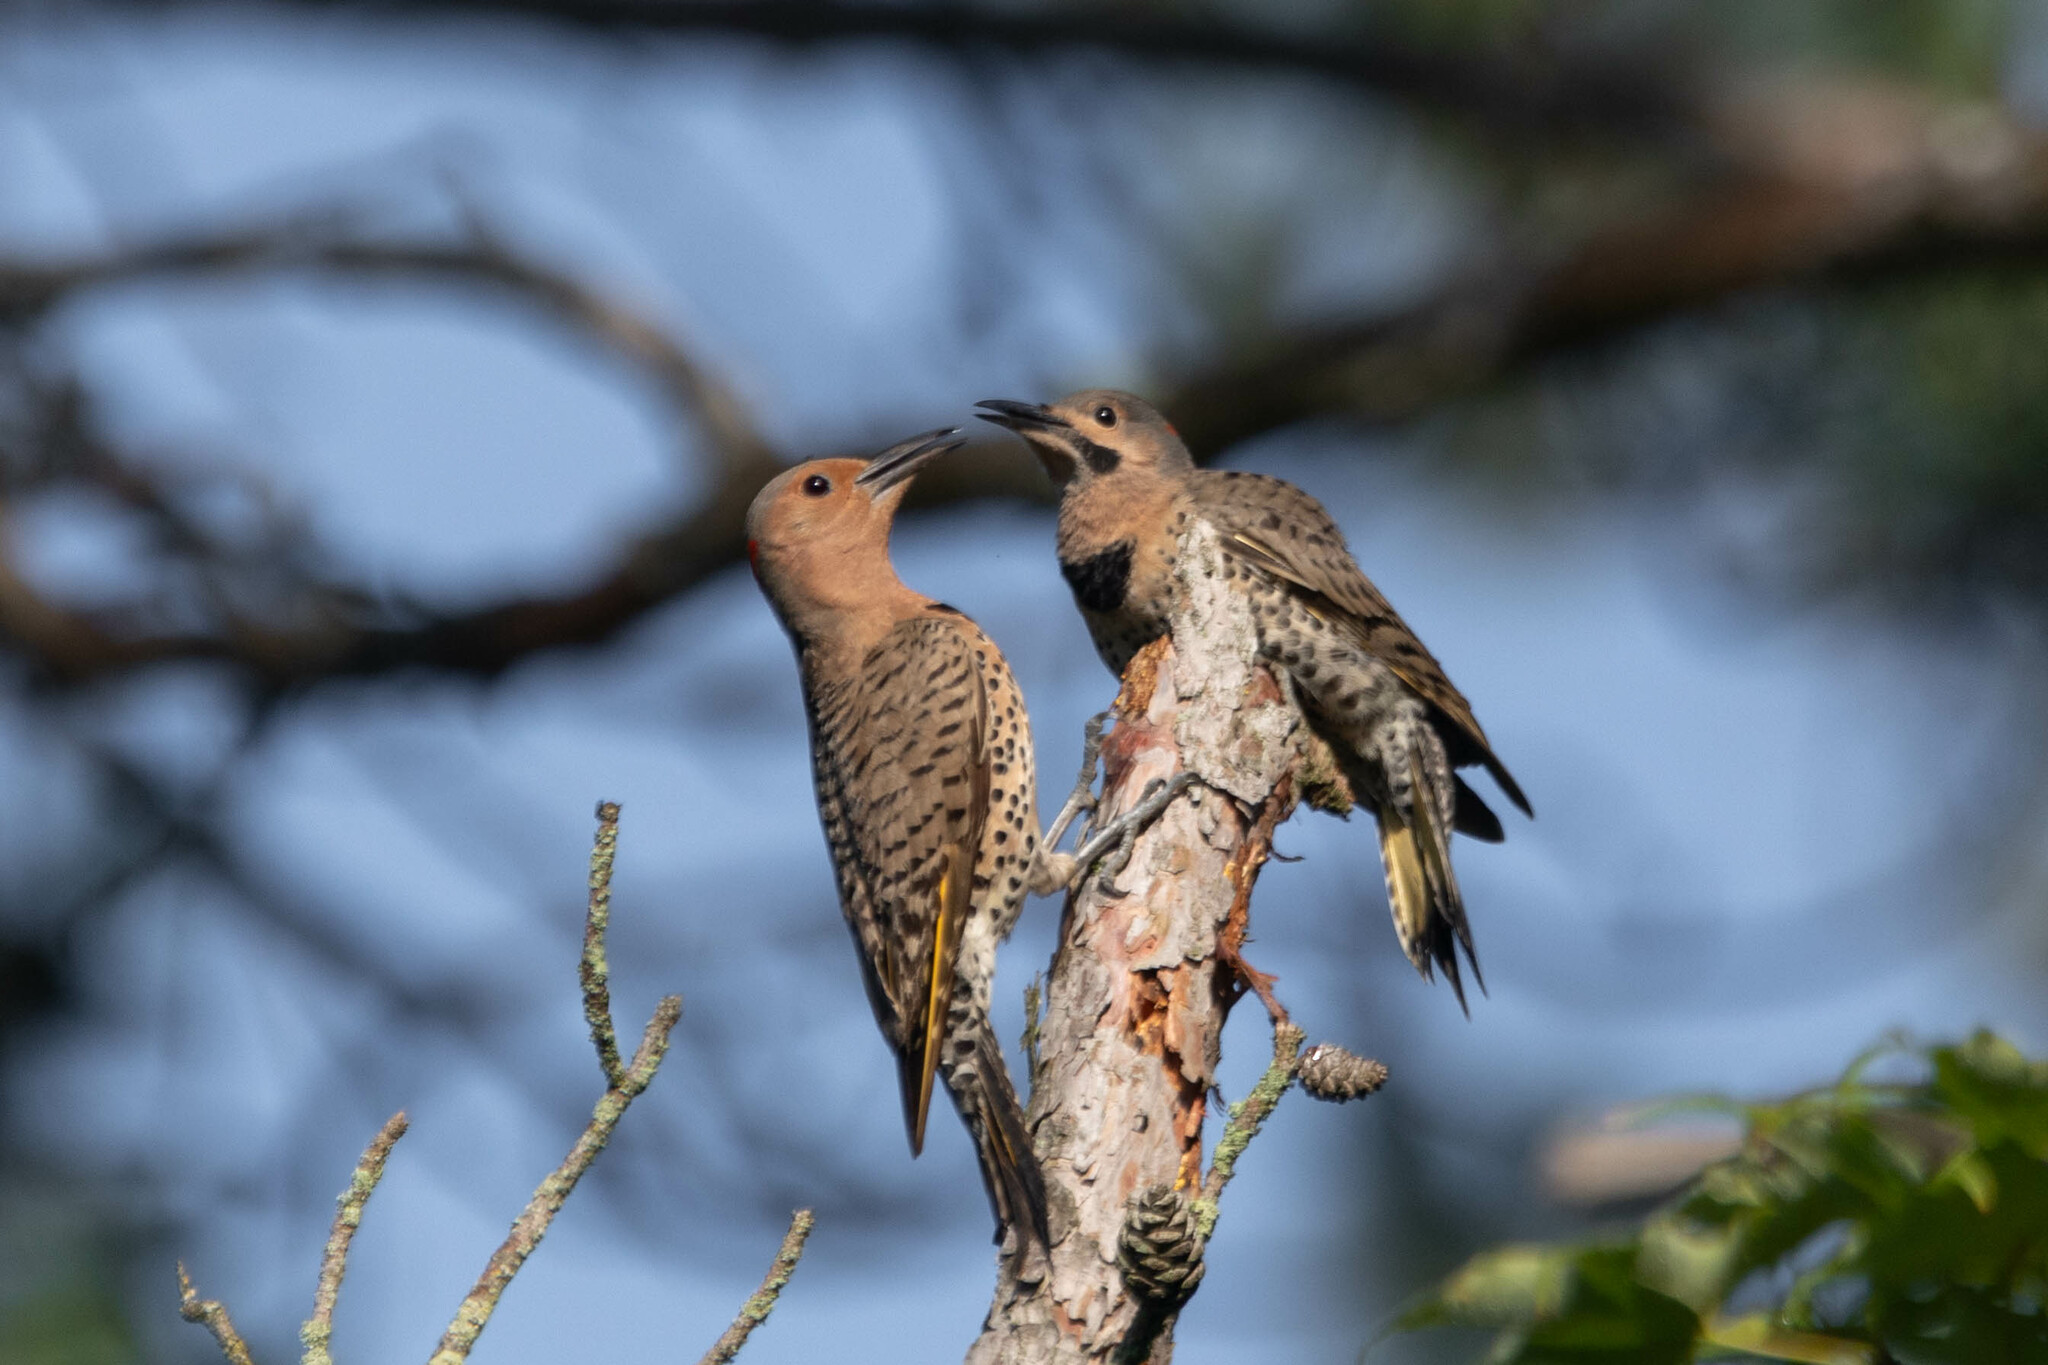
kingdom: Animalia
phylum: Chordata
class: Aves
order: Piciformes
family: Picidae
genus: Colaptes
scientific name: Colaptes auratus
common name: Northern flicker
